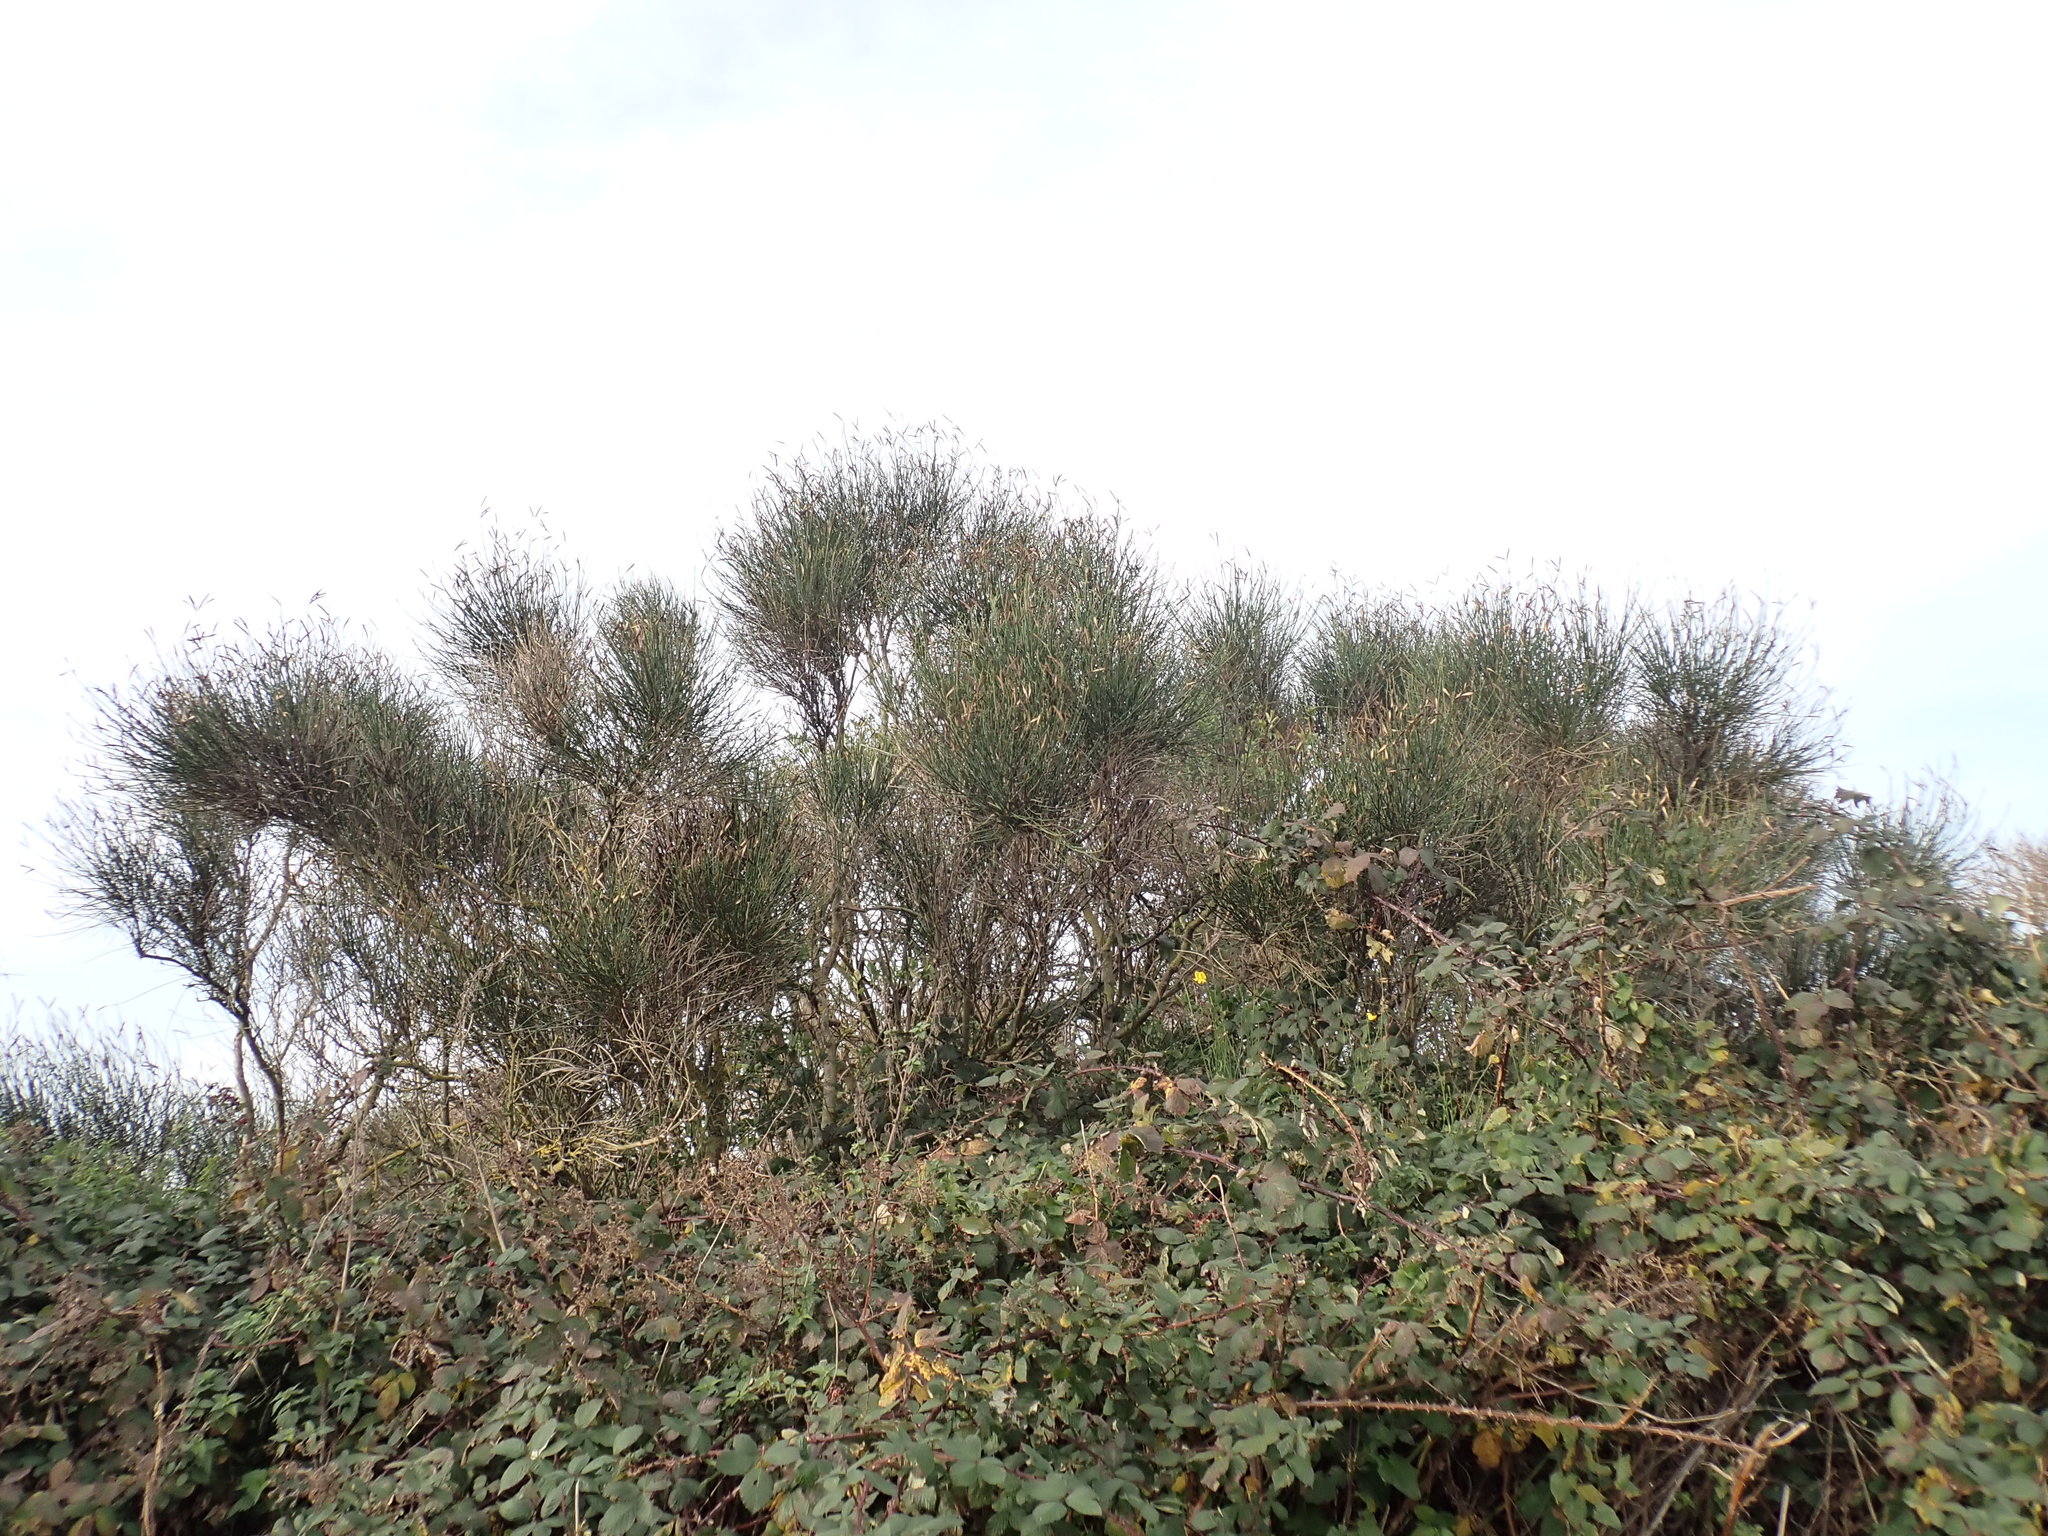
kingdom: Plantae
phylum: Tracheophyta
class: Magnoliopsida
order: Fabales
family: Fabaceae
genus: Spartium
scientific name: Spartium junceum
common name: Spanish broom
